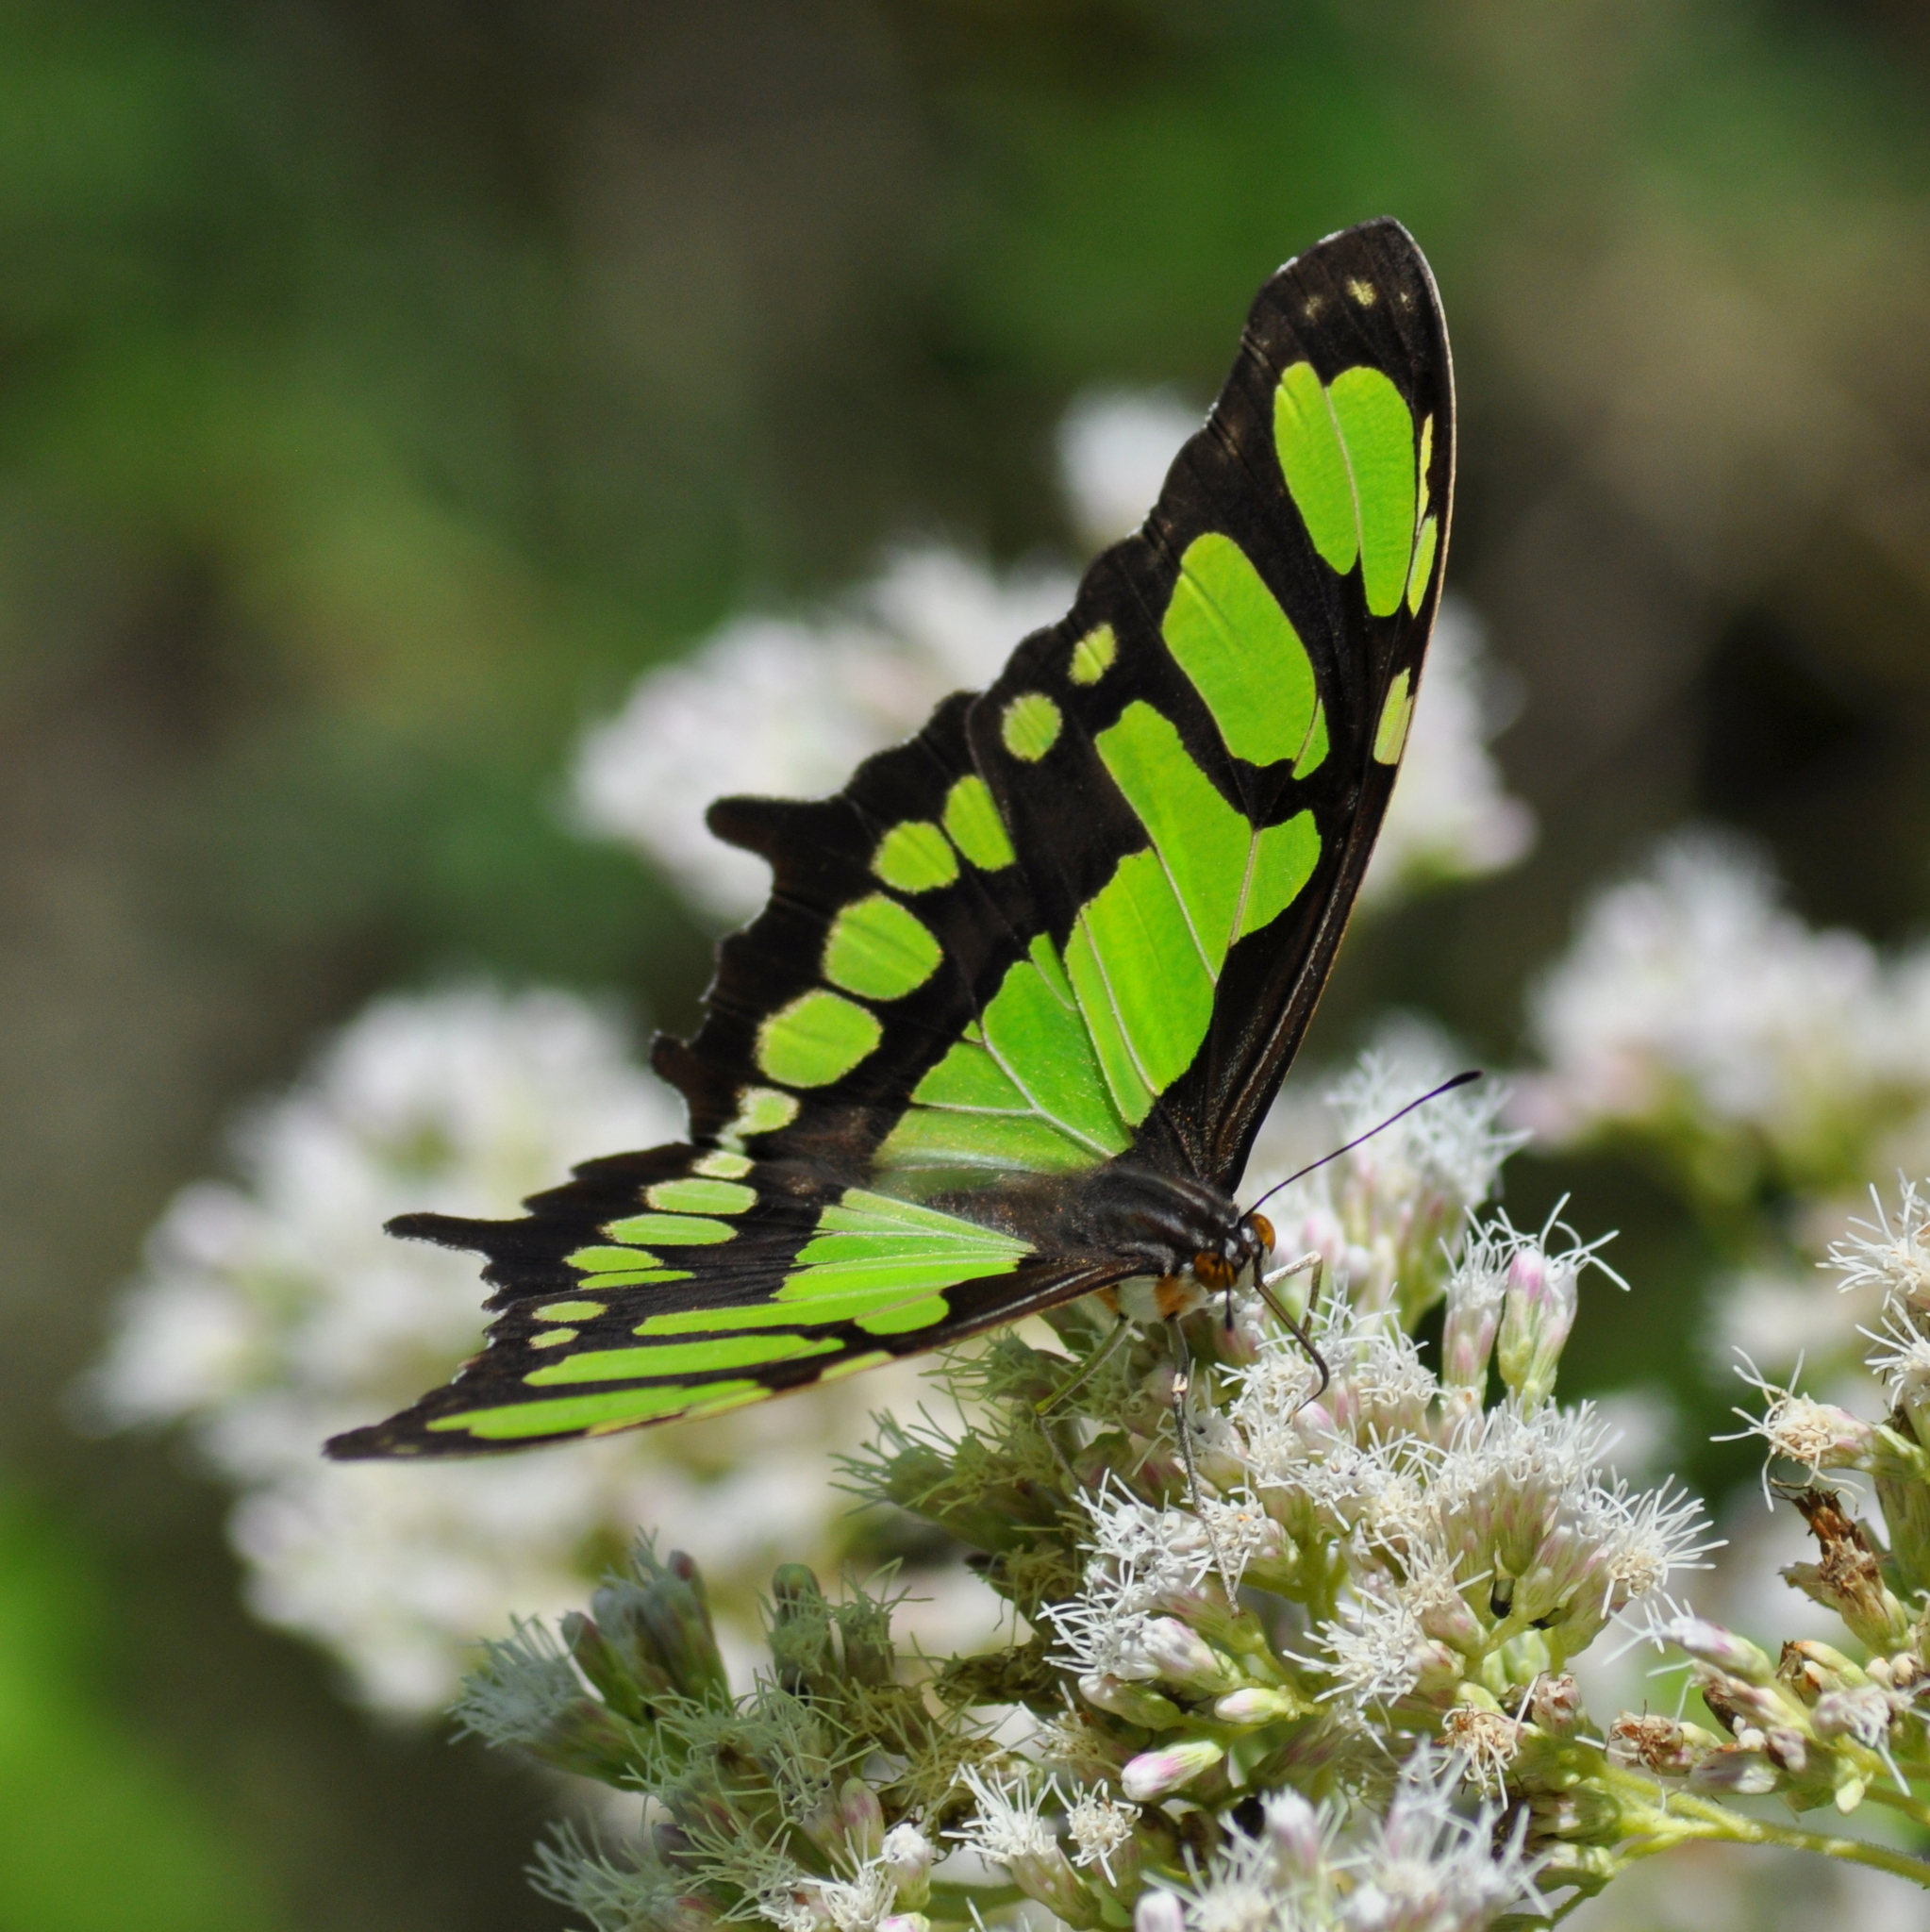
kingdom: Animalia
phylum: Arthropoda
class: Insecta
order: Lepidoptera
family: Nymphalidae
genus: Siproeta
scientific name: Siproeta stelenes
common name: Malachite
